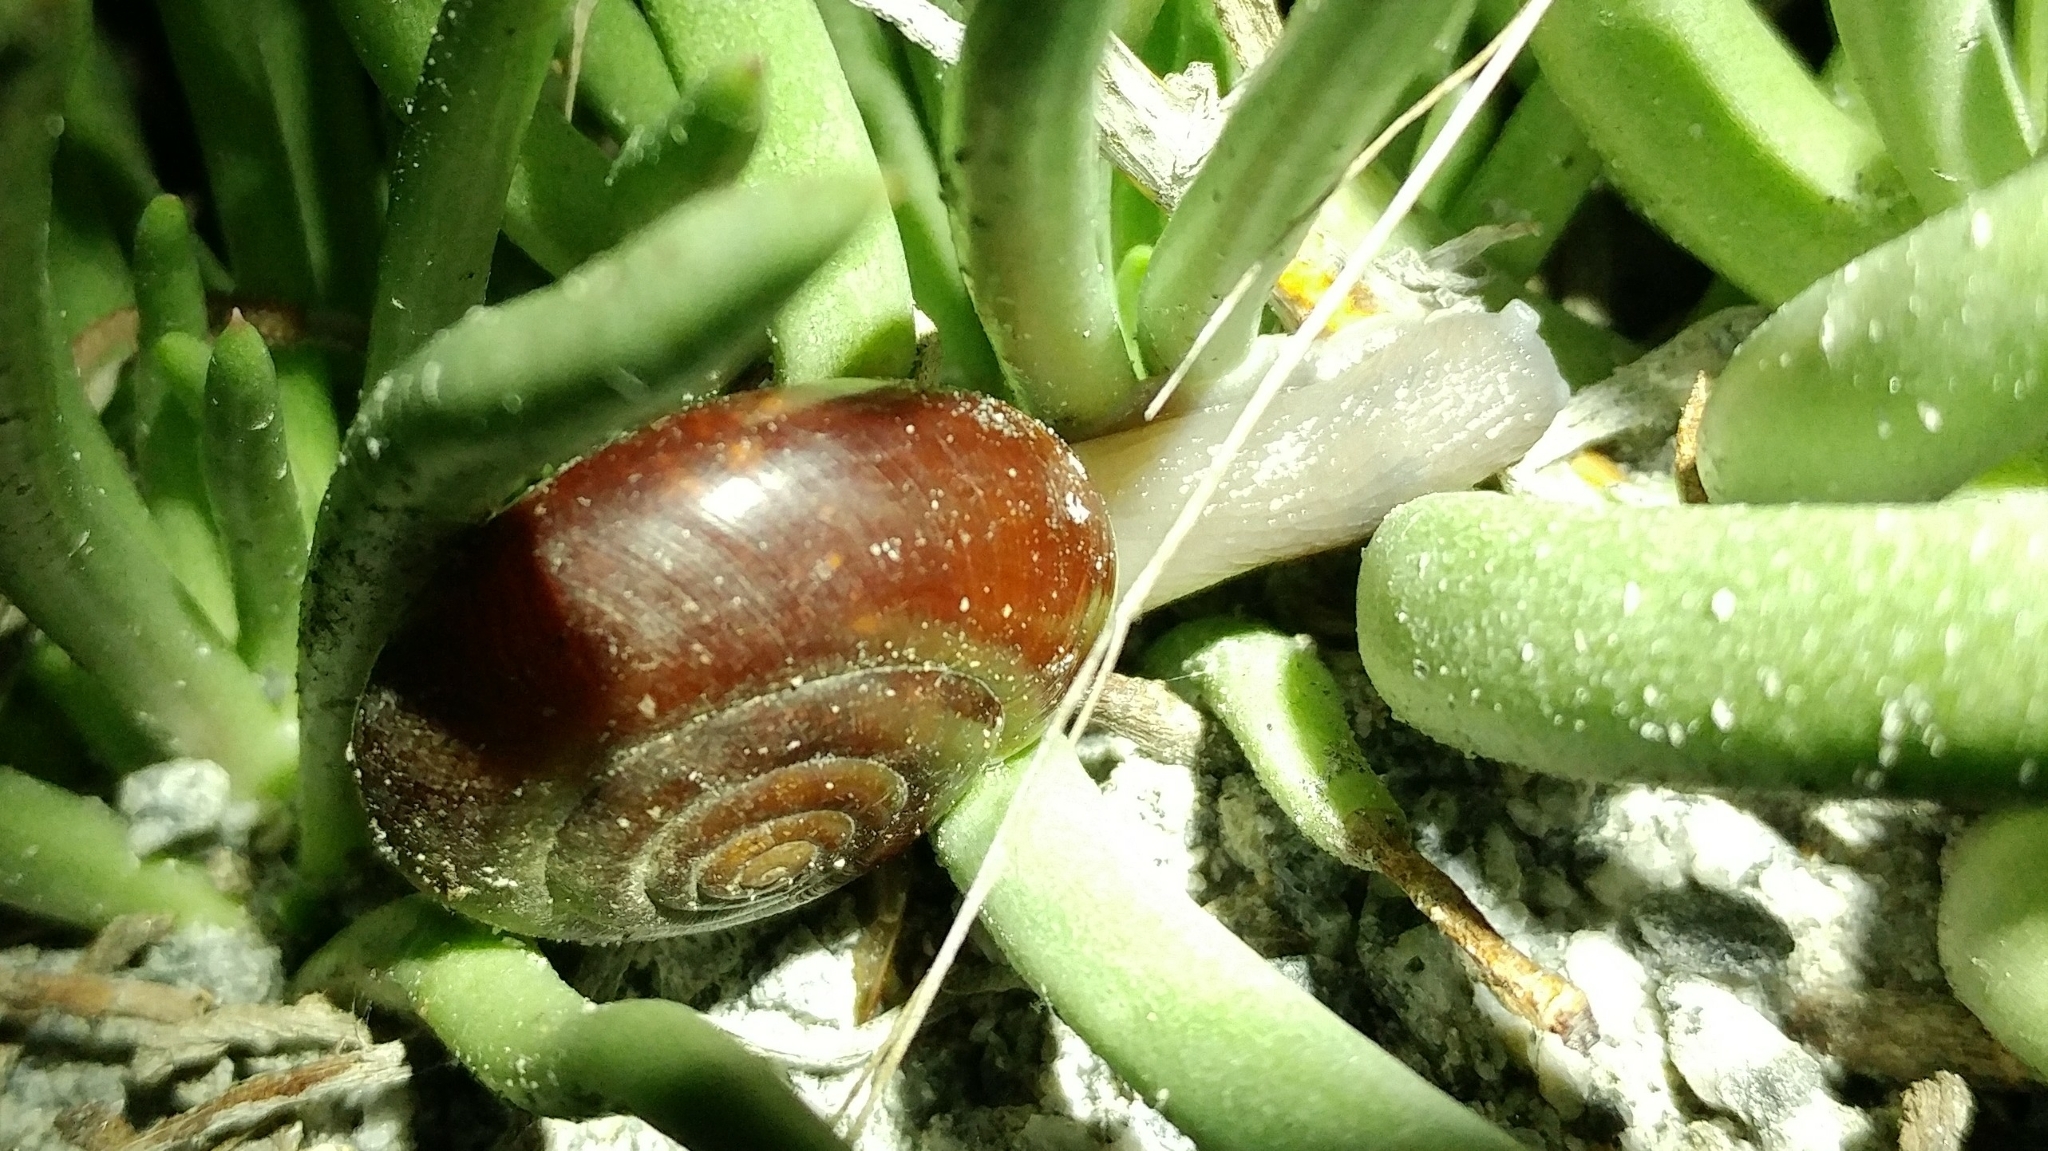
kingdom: Animalia
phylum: Mollusca
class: Gastropoda
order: Stylommatophora
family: Megomphicidae
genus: Glyptostoma
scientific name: Glyptostoma newberryanum
